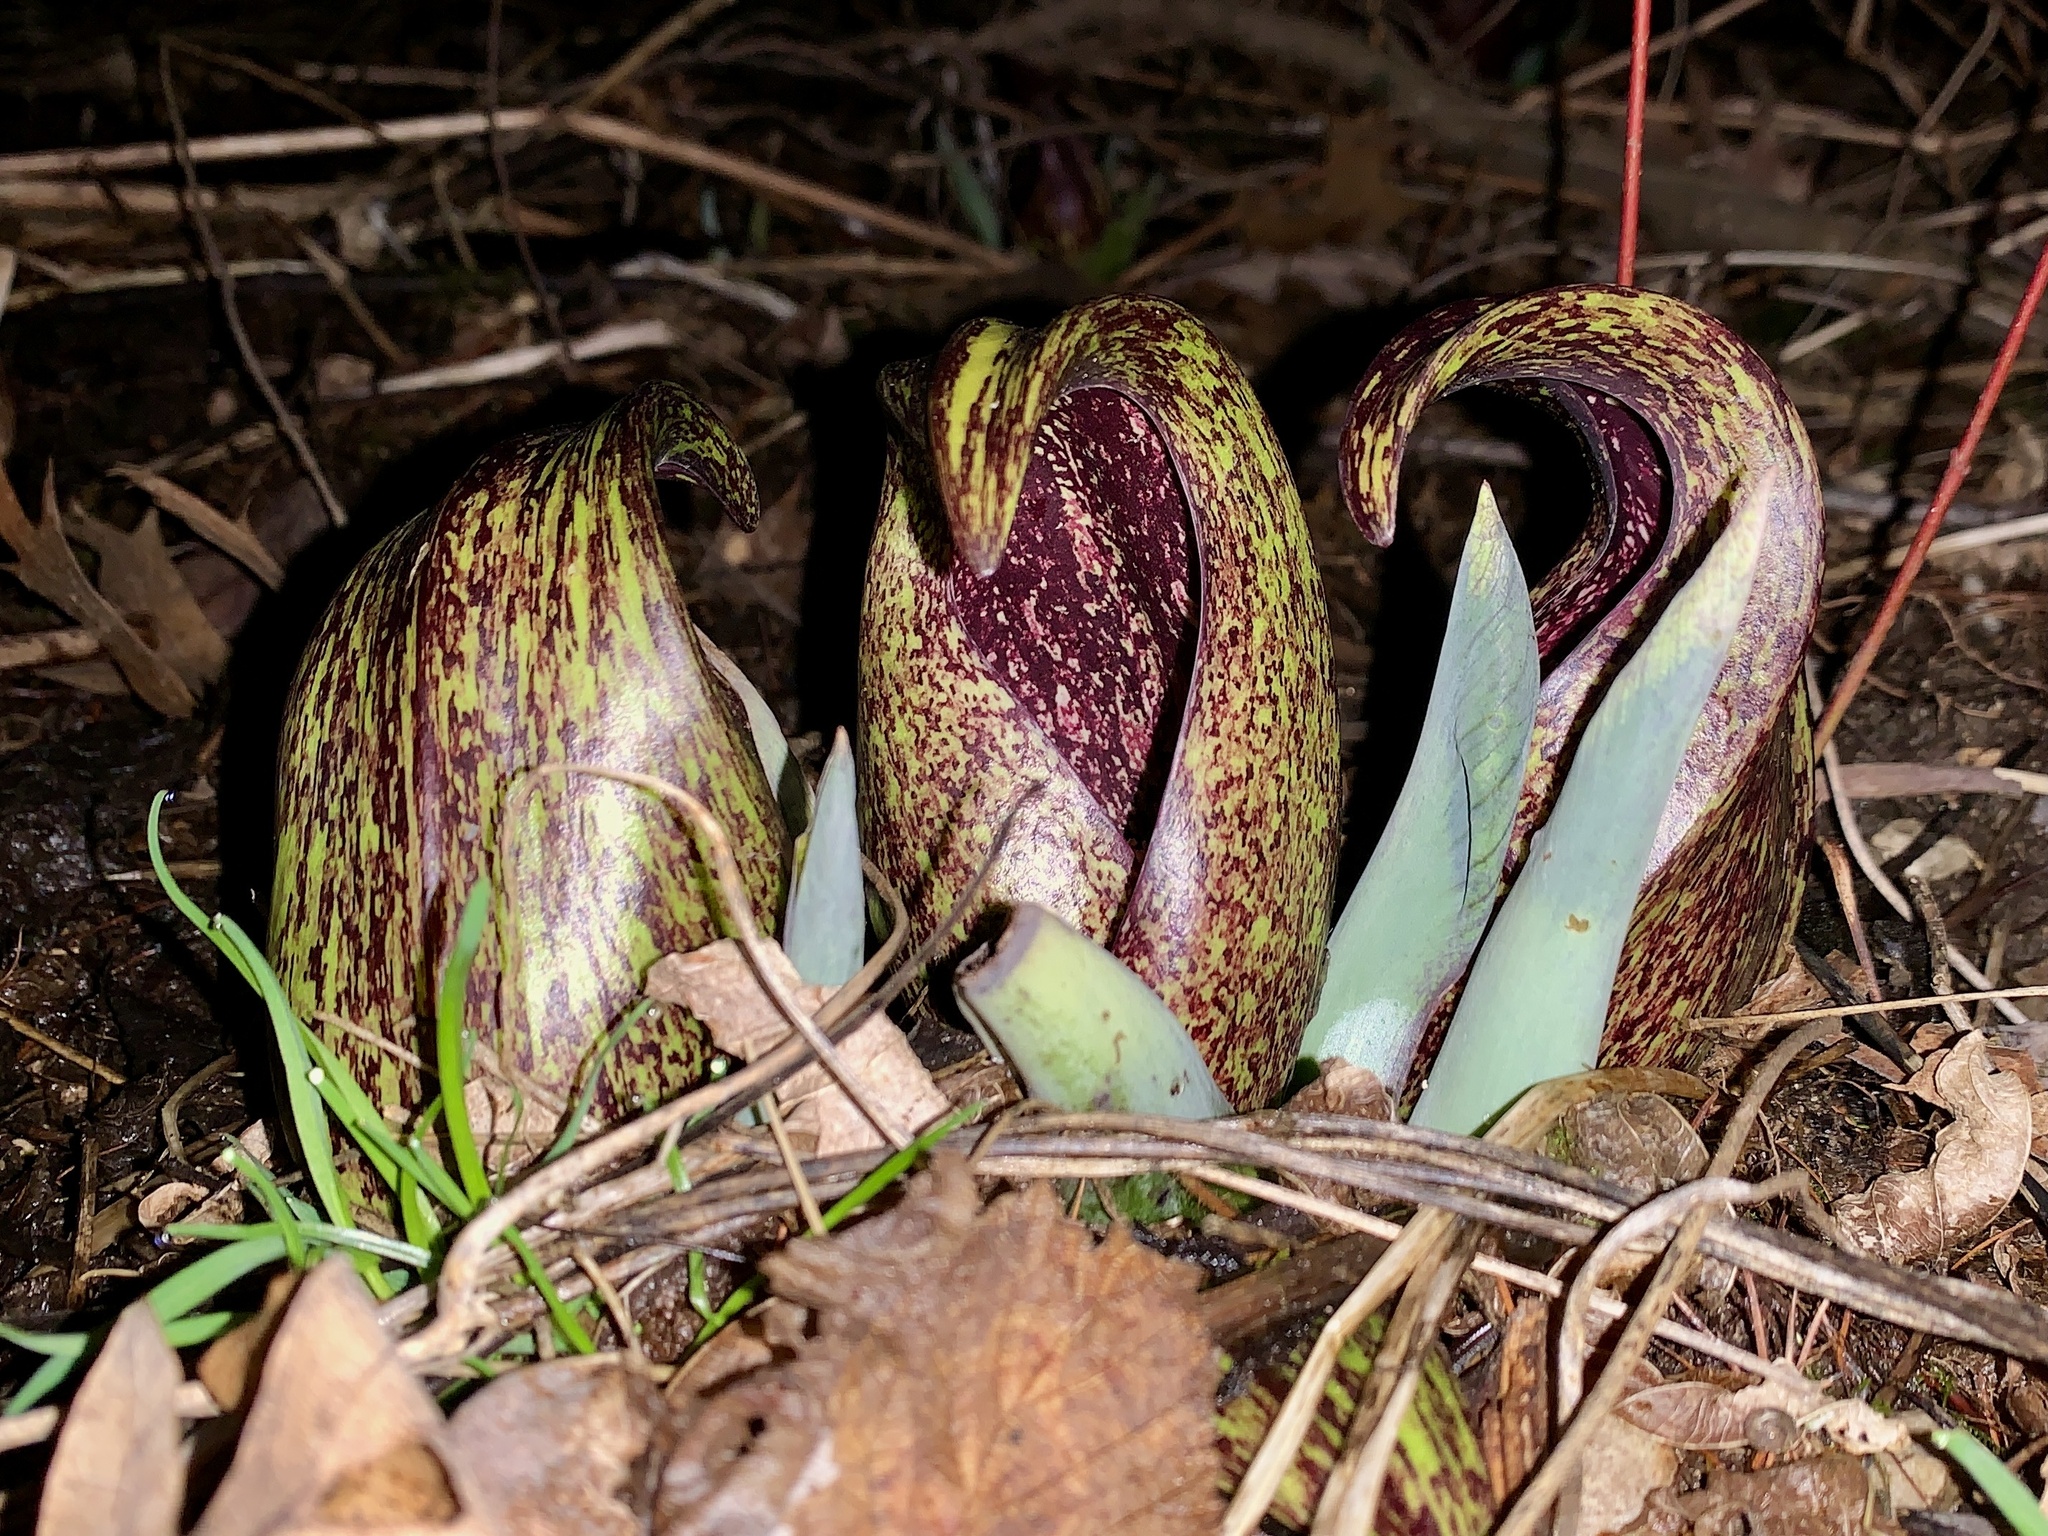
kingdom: Plantae
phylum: Tracheophyta
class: Liliopsida
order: Alismatales
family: Araceae
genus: Symplocarpus
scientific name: Symplocarpus foetidus
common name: Eastern skunk cabbage
